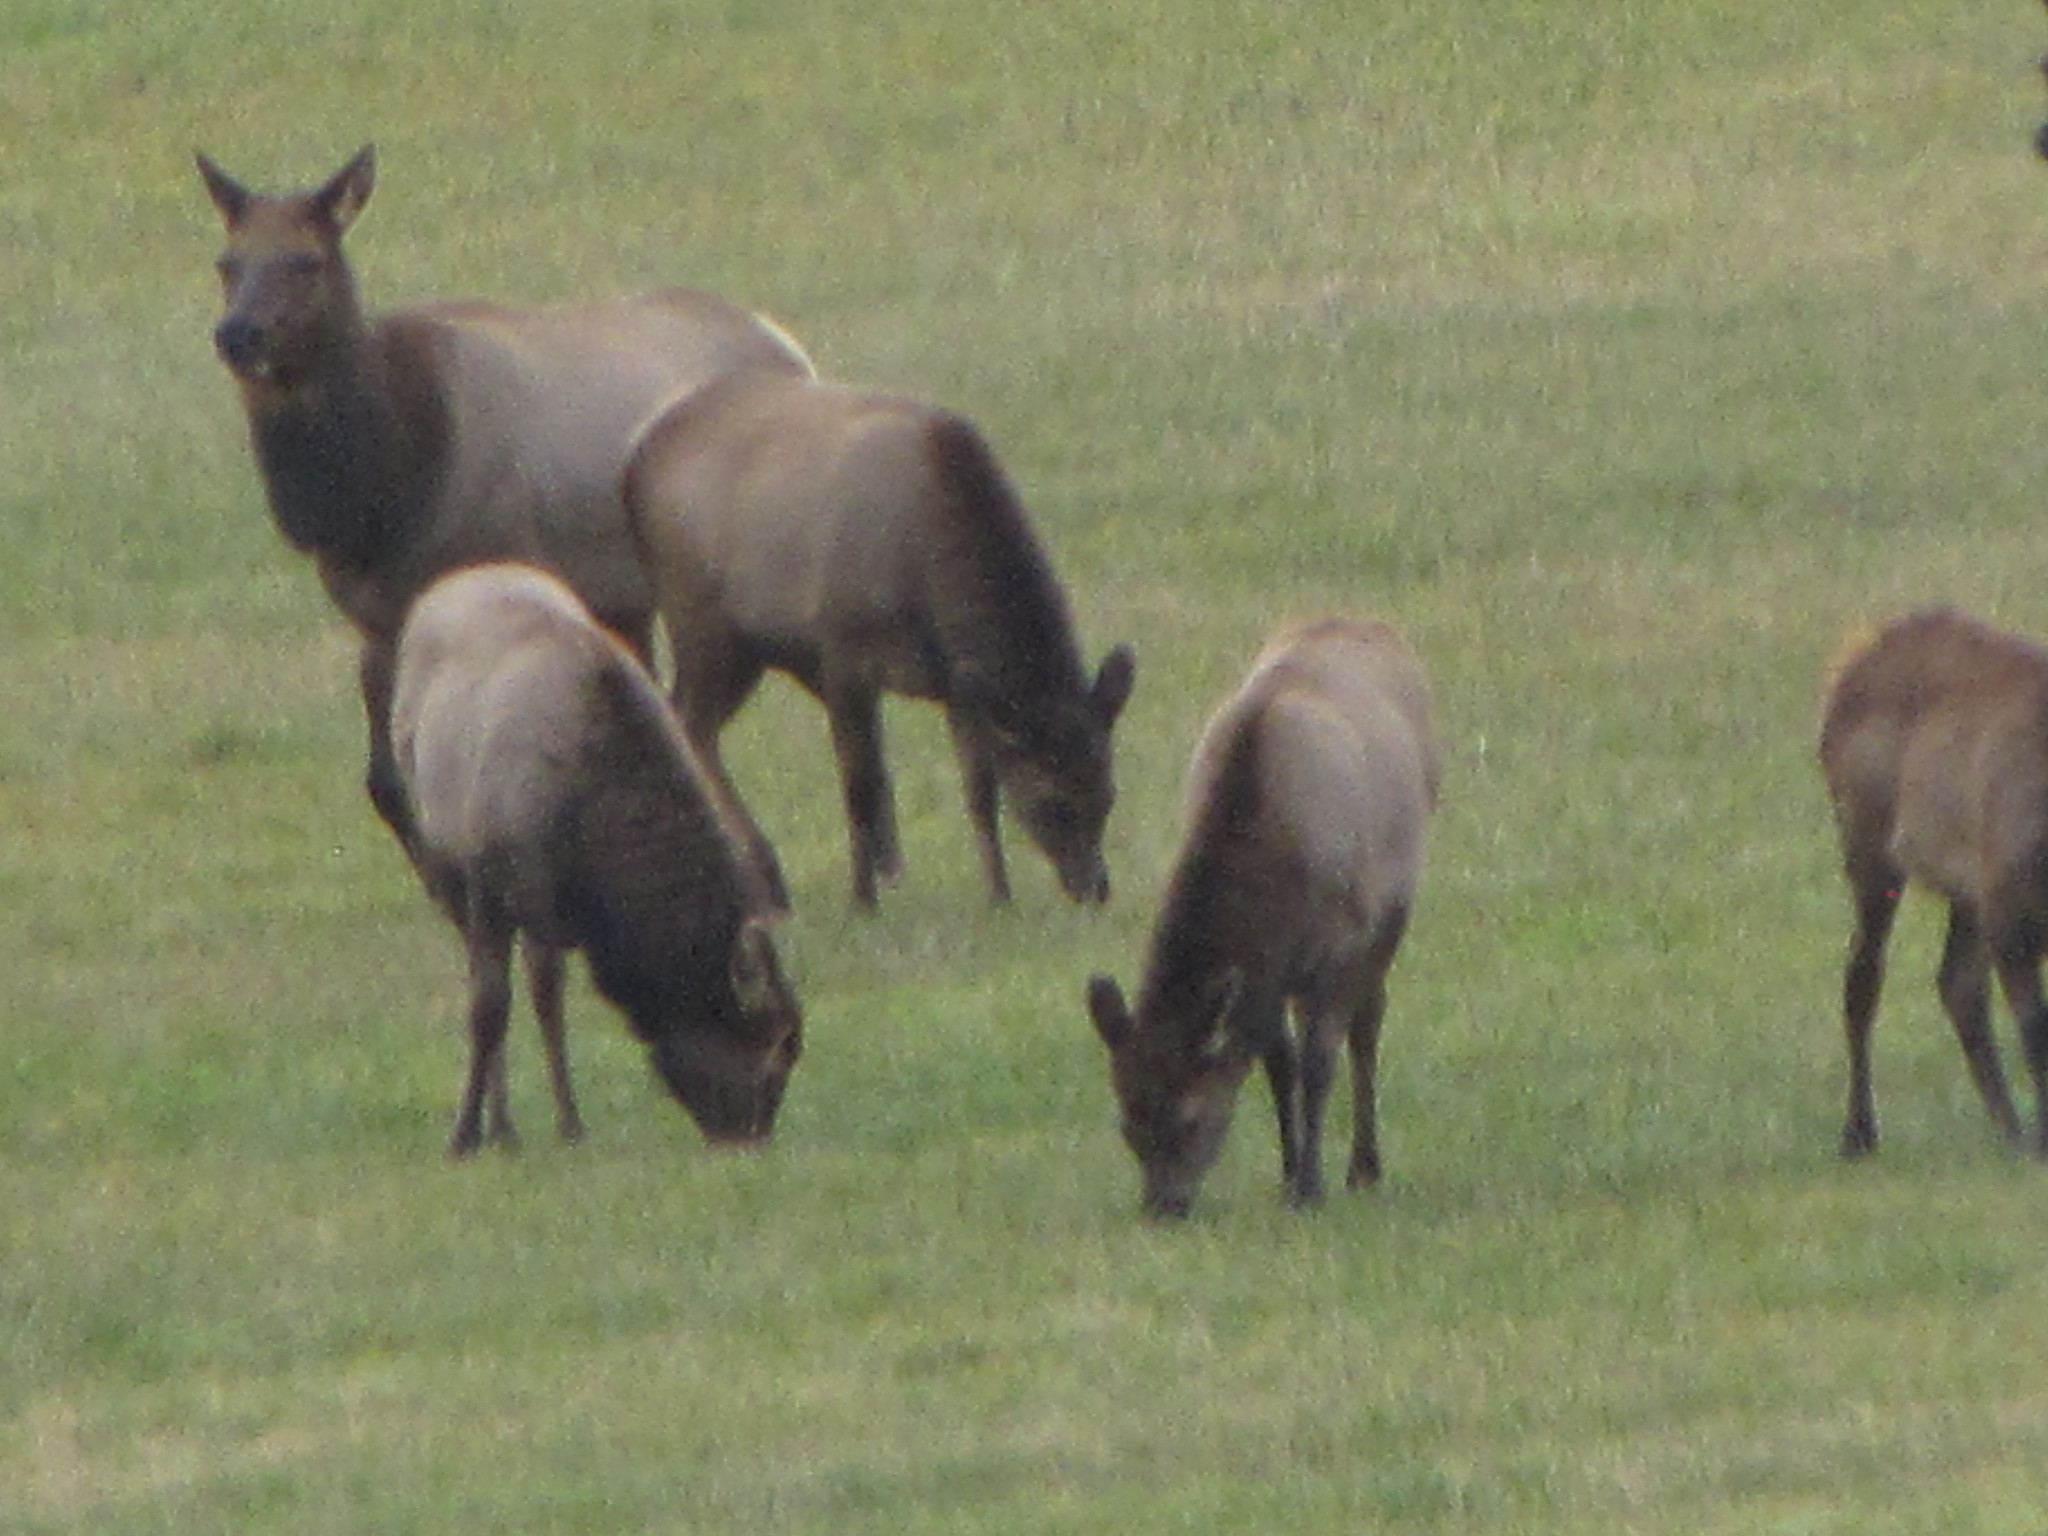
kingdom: Animalia
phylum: Chordata
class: Mammalia
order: Artiodactyla
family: Cervidae
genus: Cervus
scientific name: Cervus elaphus
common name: Red deer
